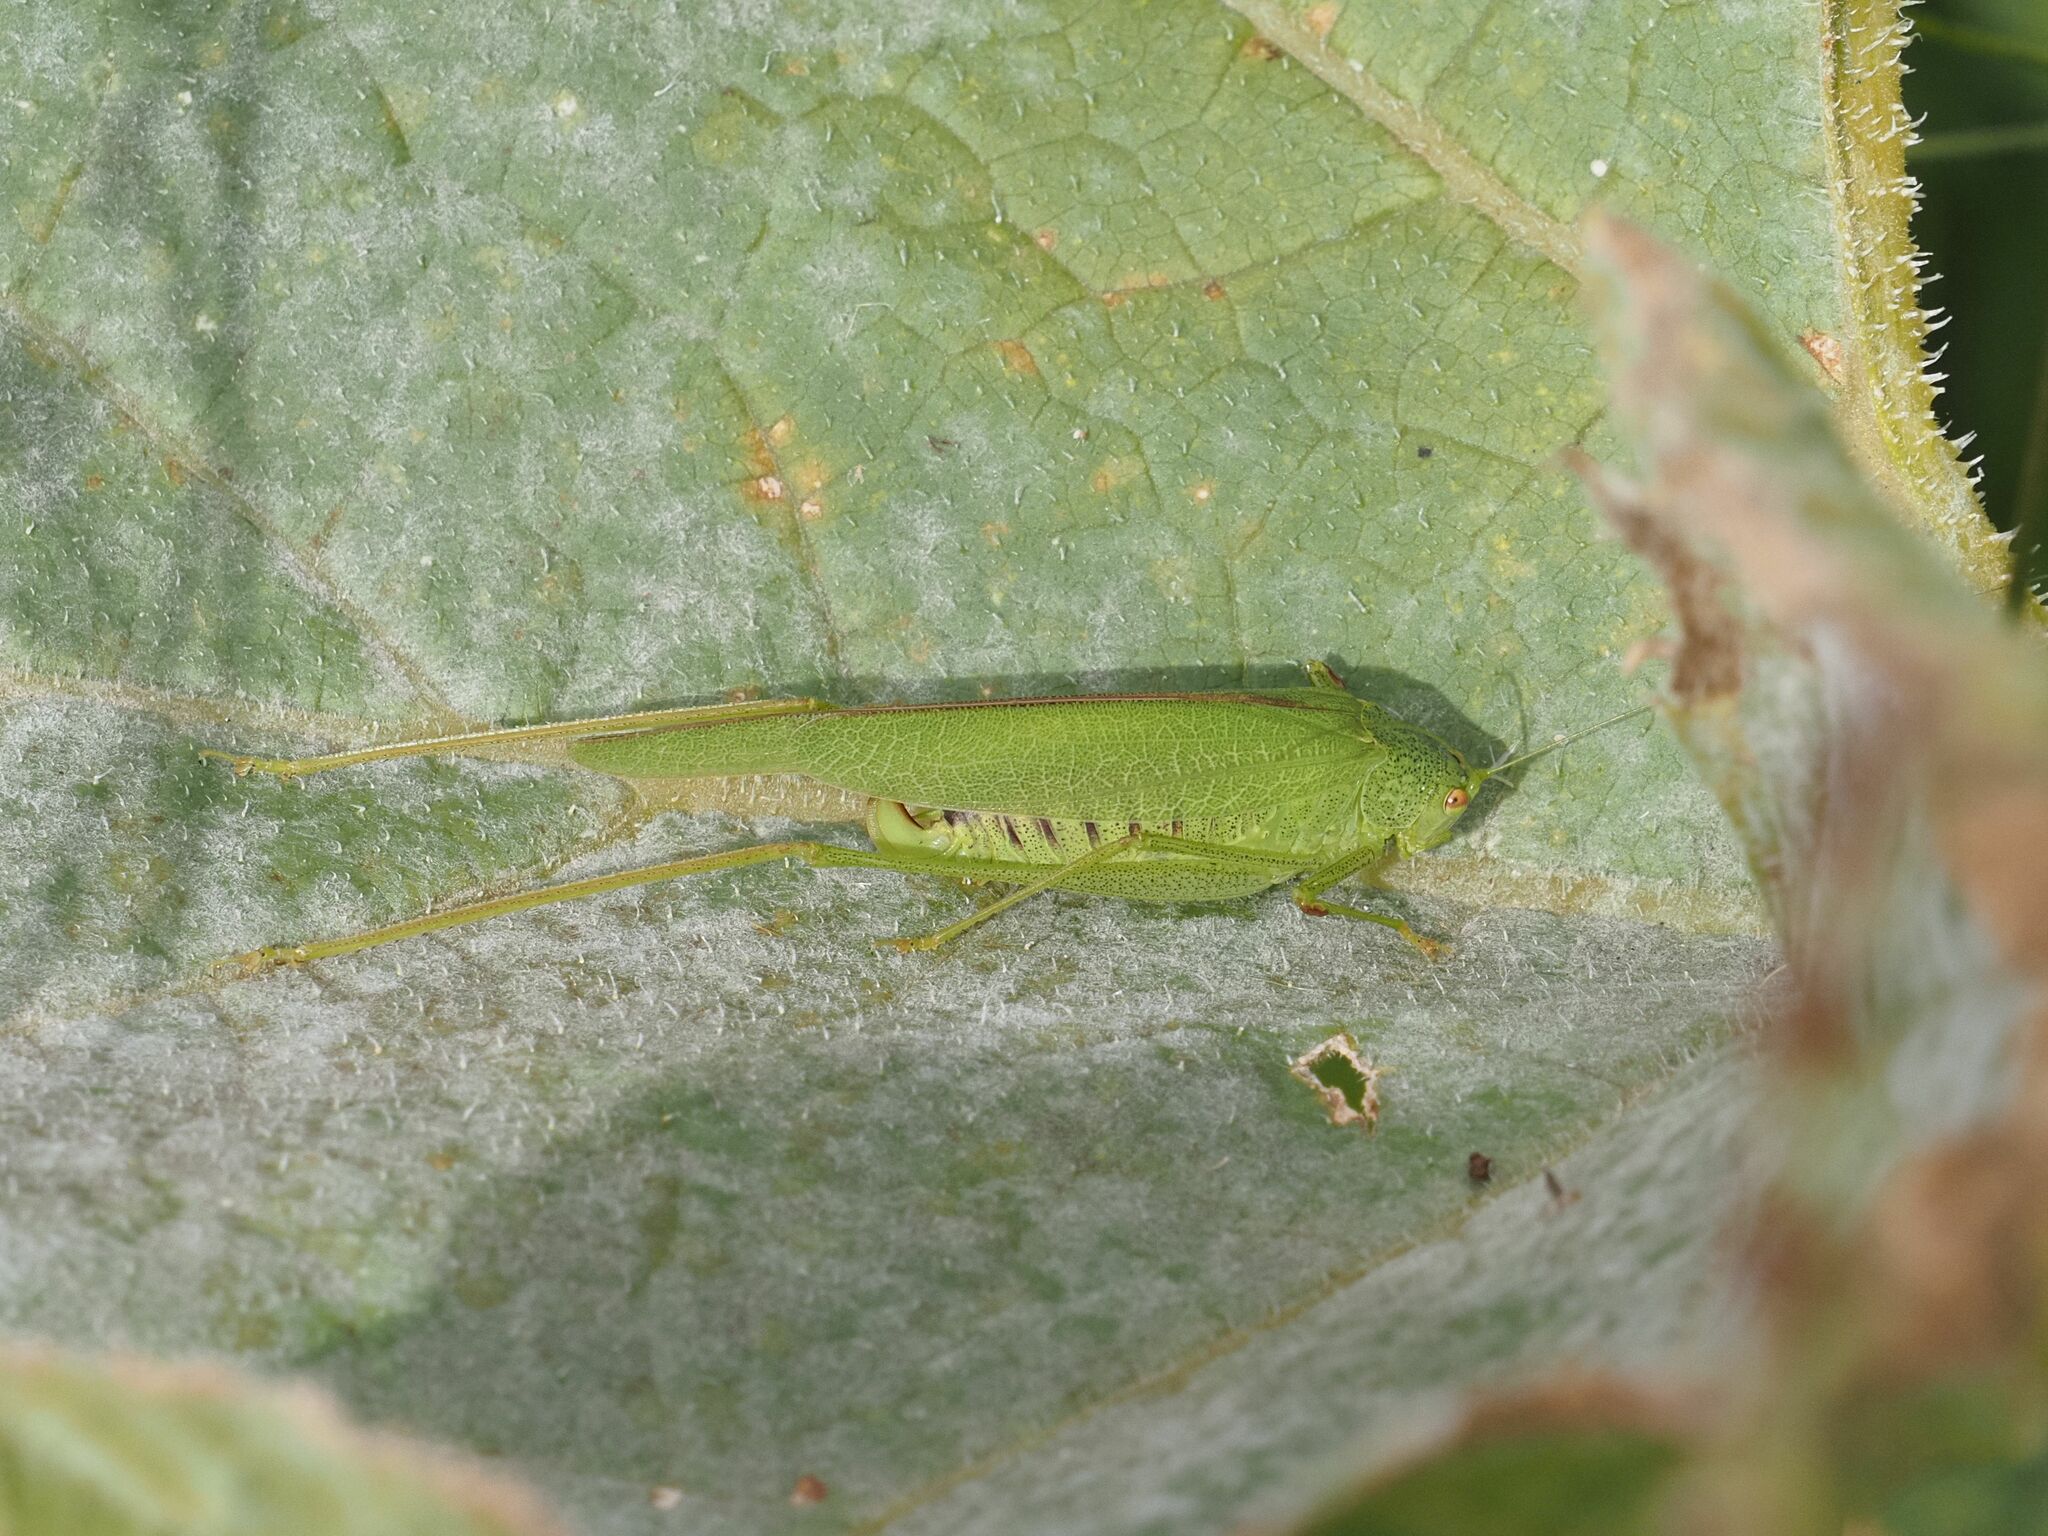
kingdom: Animalia
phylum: Arthropoda
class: Insecta
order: Orthoptera
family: Tettigoniidae
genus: Phaneroptera
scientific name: Phaneroptera nana
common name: Southern sickle bush-cricket
